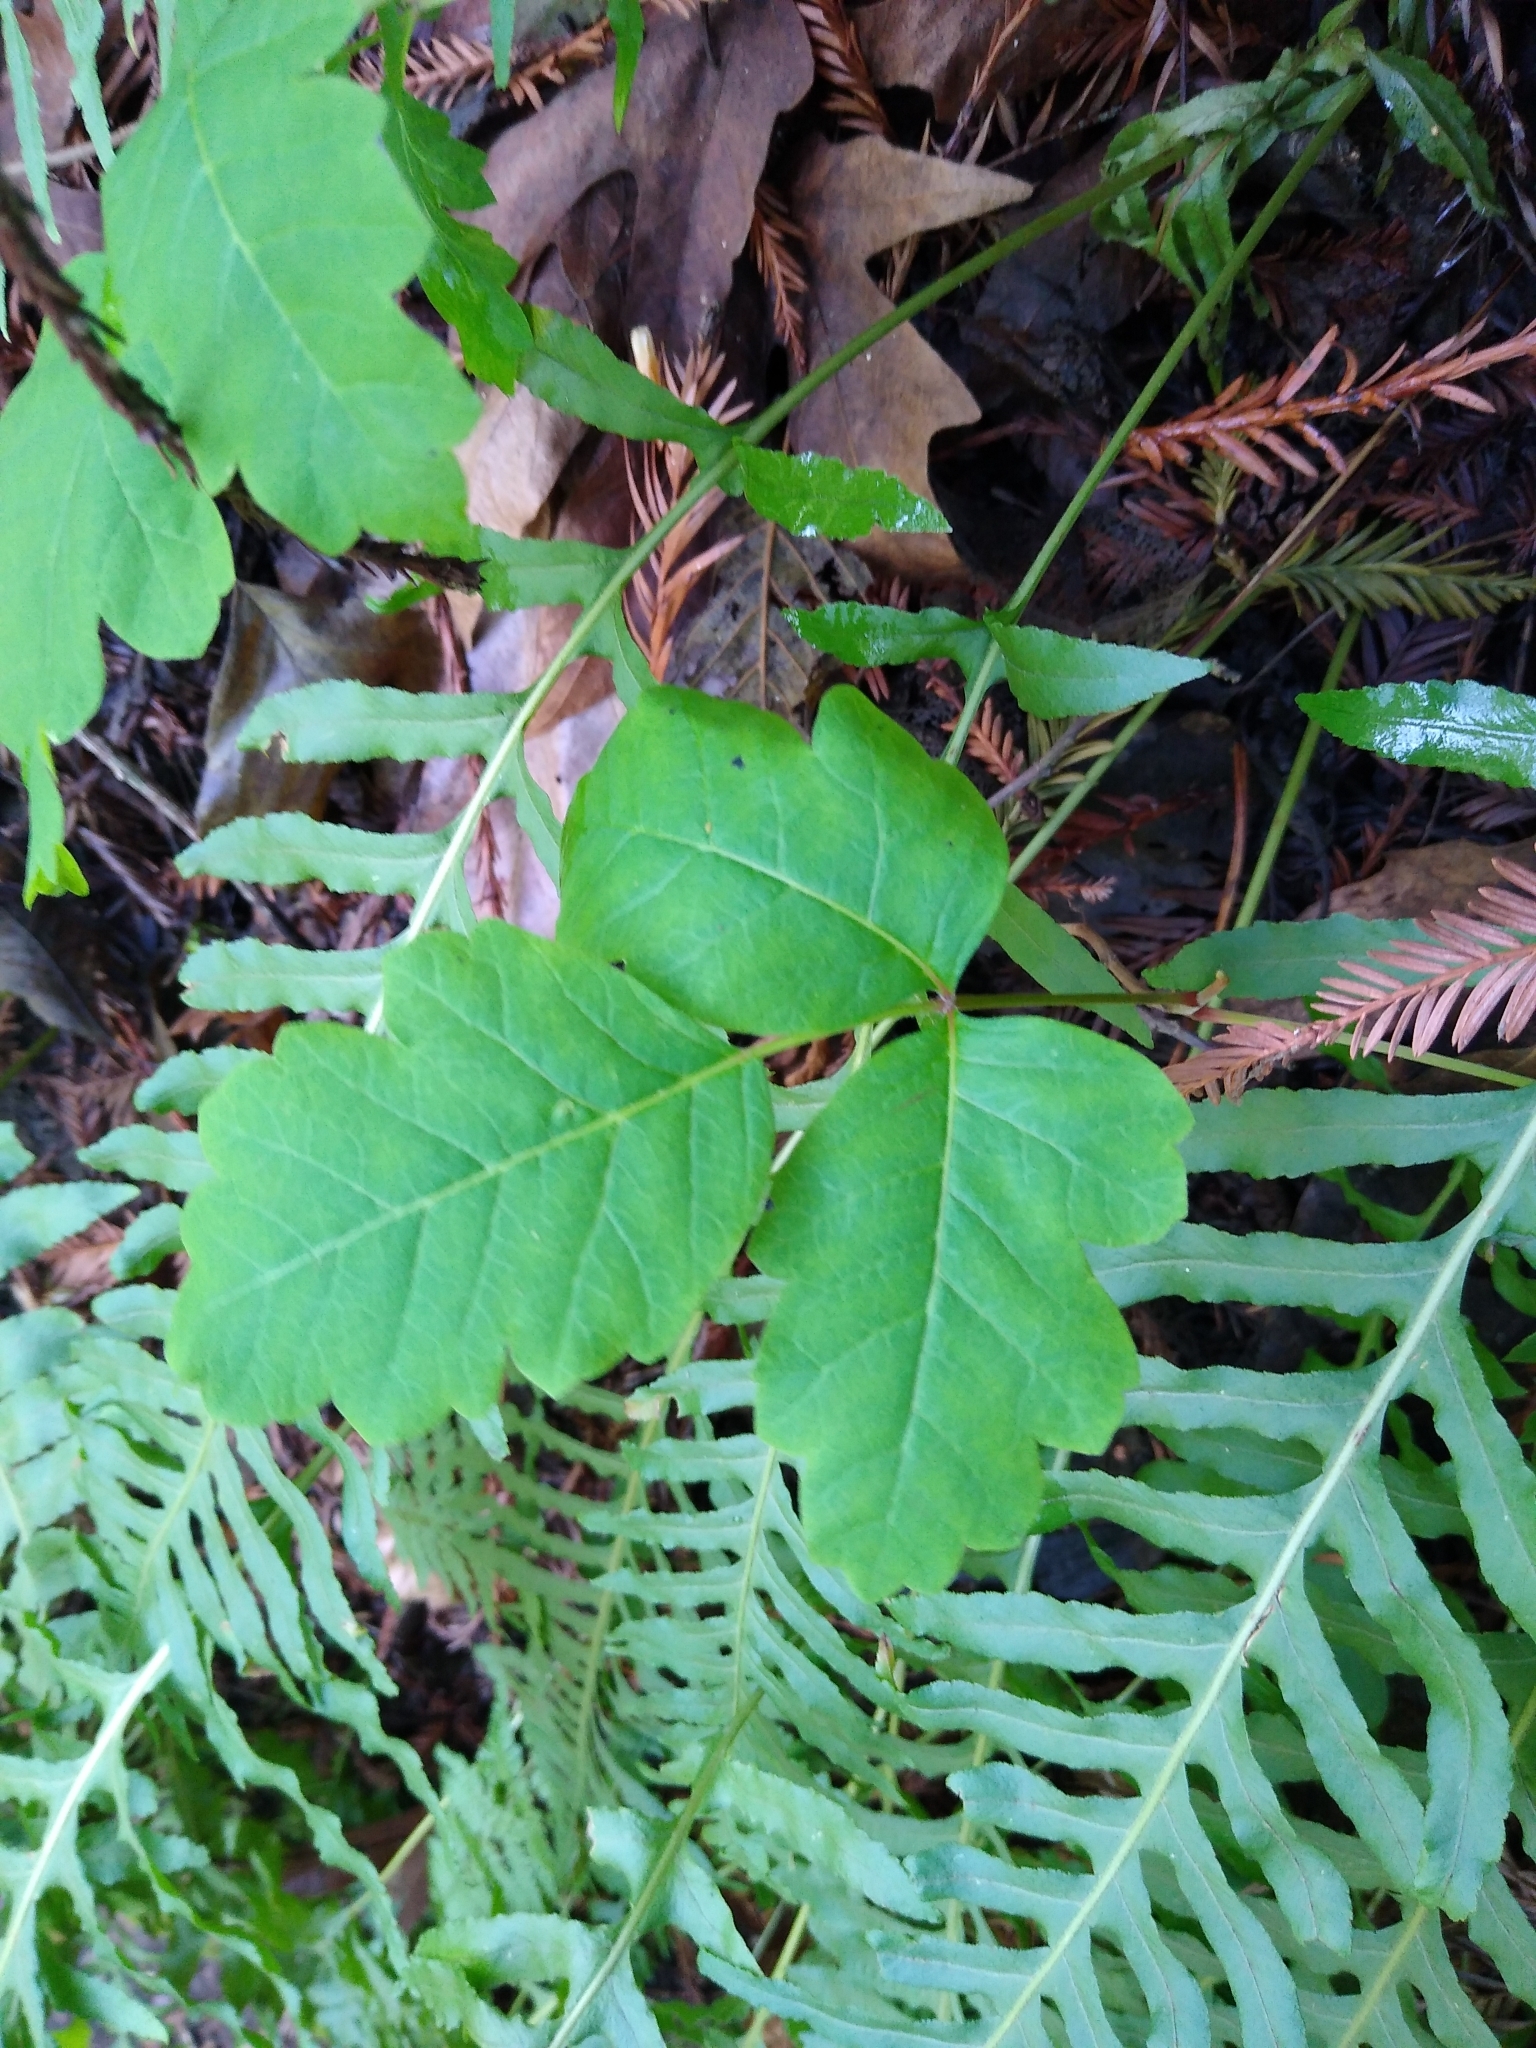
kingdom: Plantae
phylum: Tracheophyta
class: Magnoliopsida
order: Sapindales
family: Anacardiaceae
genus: Toxicodendron
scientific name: Toxicodendron diversilobum
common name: Pacific poison-oak
